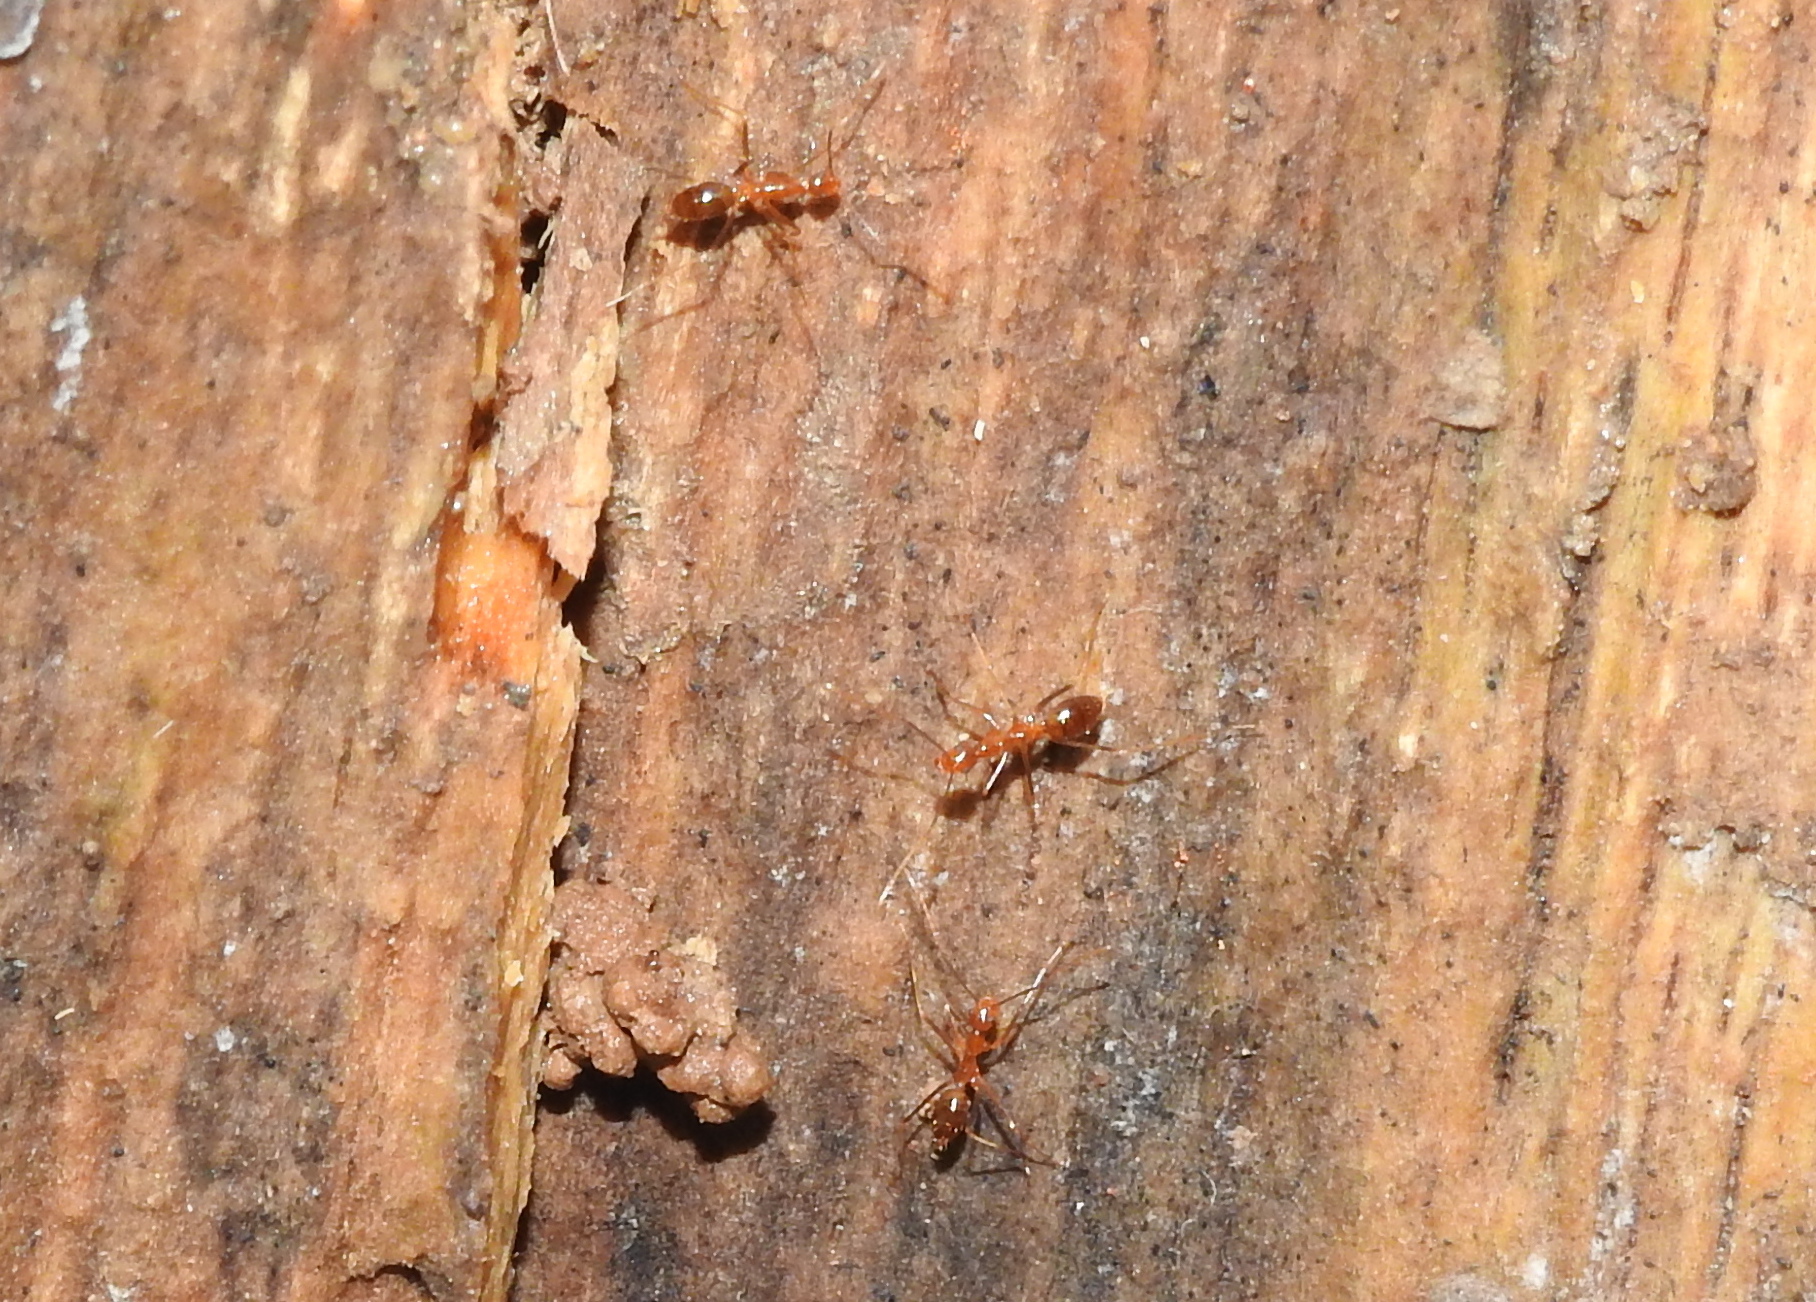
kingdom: Animalia
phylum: Arthropoda
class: Insecta
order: Hymenoptera
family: Formicidae
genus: Anoplolepis
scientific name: Anoplolepis gracilipes
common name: Ant
